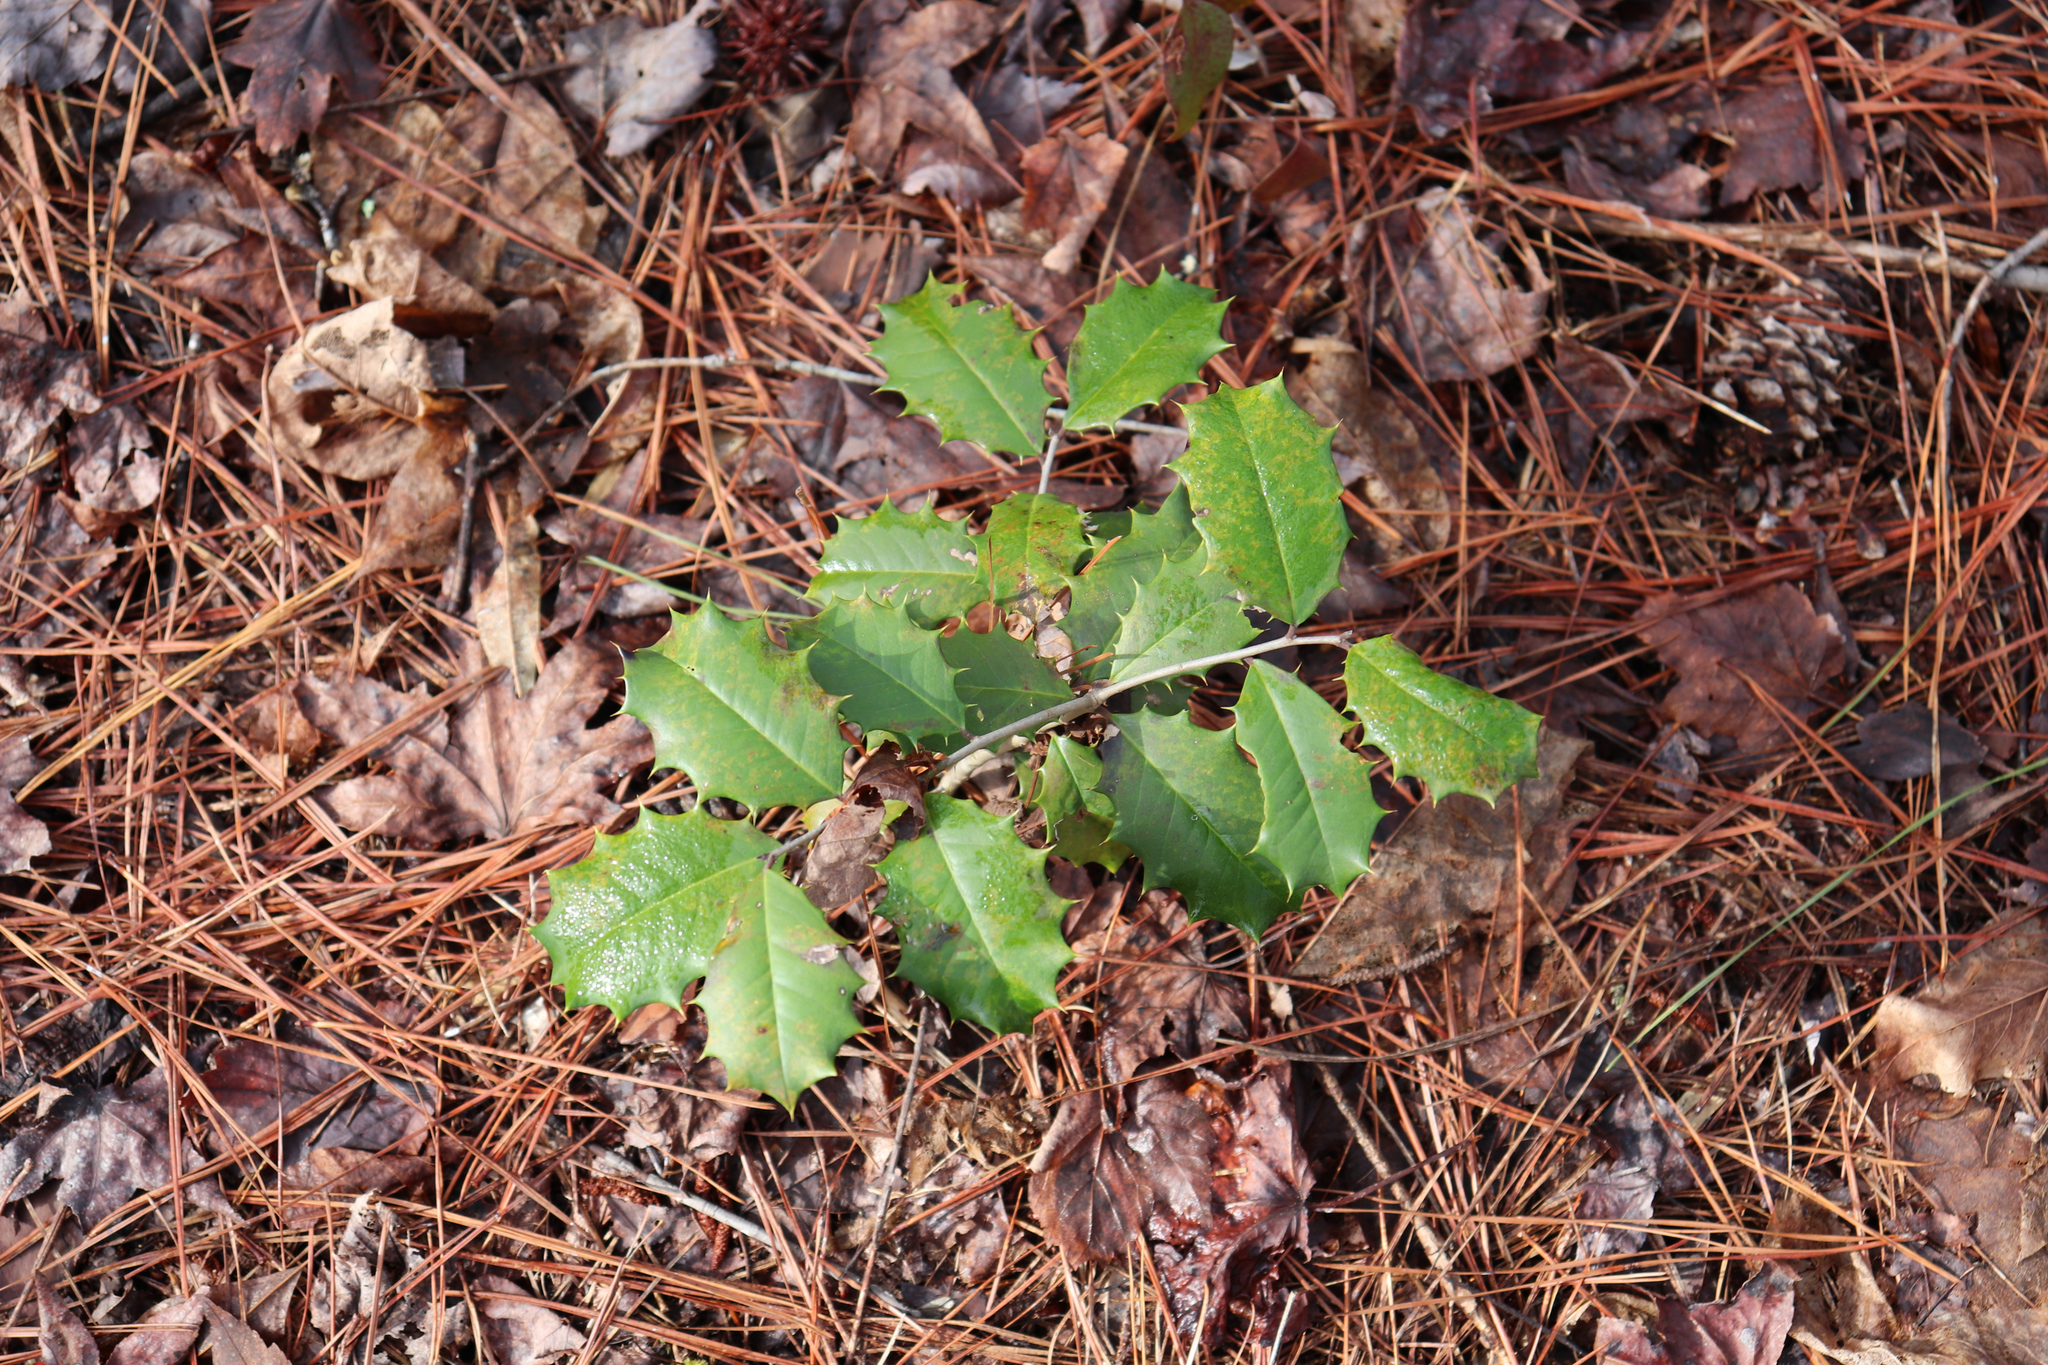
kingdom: Plantae
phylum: Tracheophyta
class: Magnoliopsida
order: Aquifoliales
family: Aquifoliaceae
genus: Ilex
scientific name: Ilex opaca
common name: American holly
